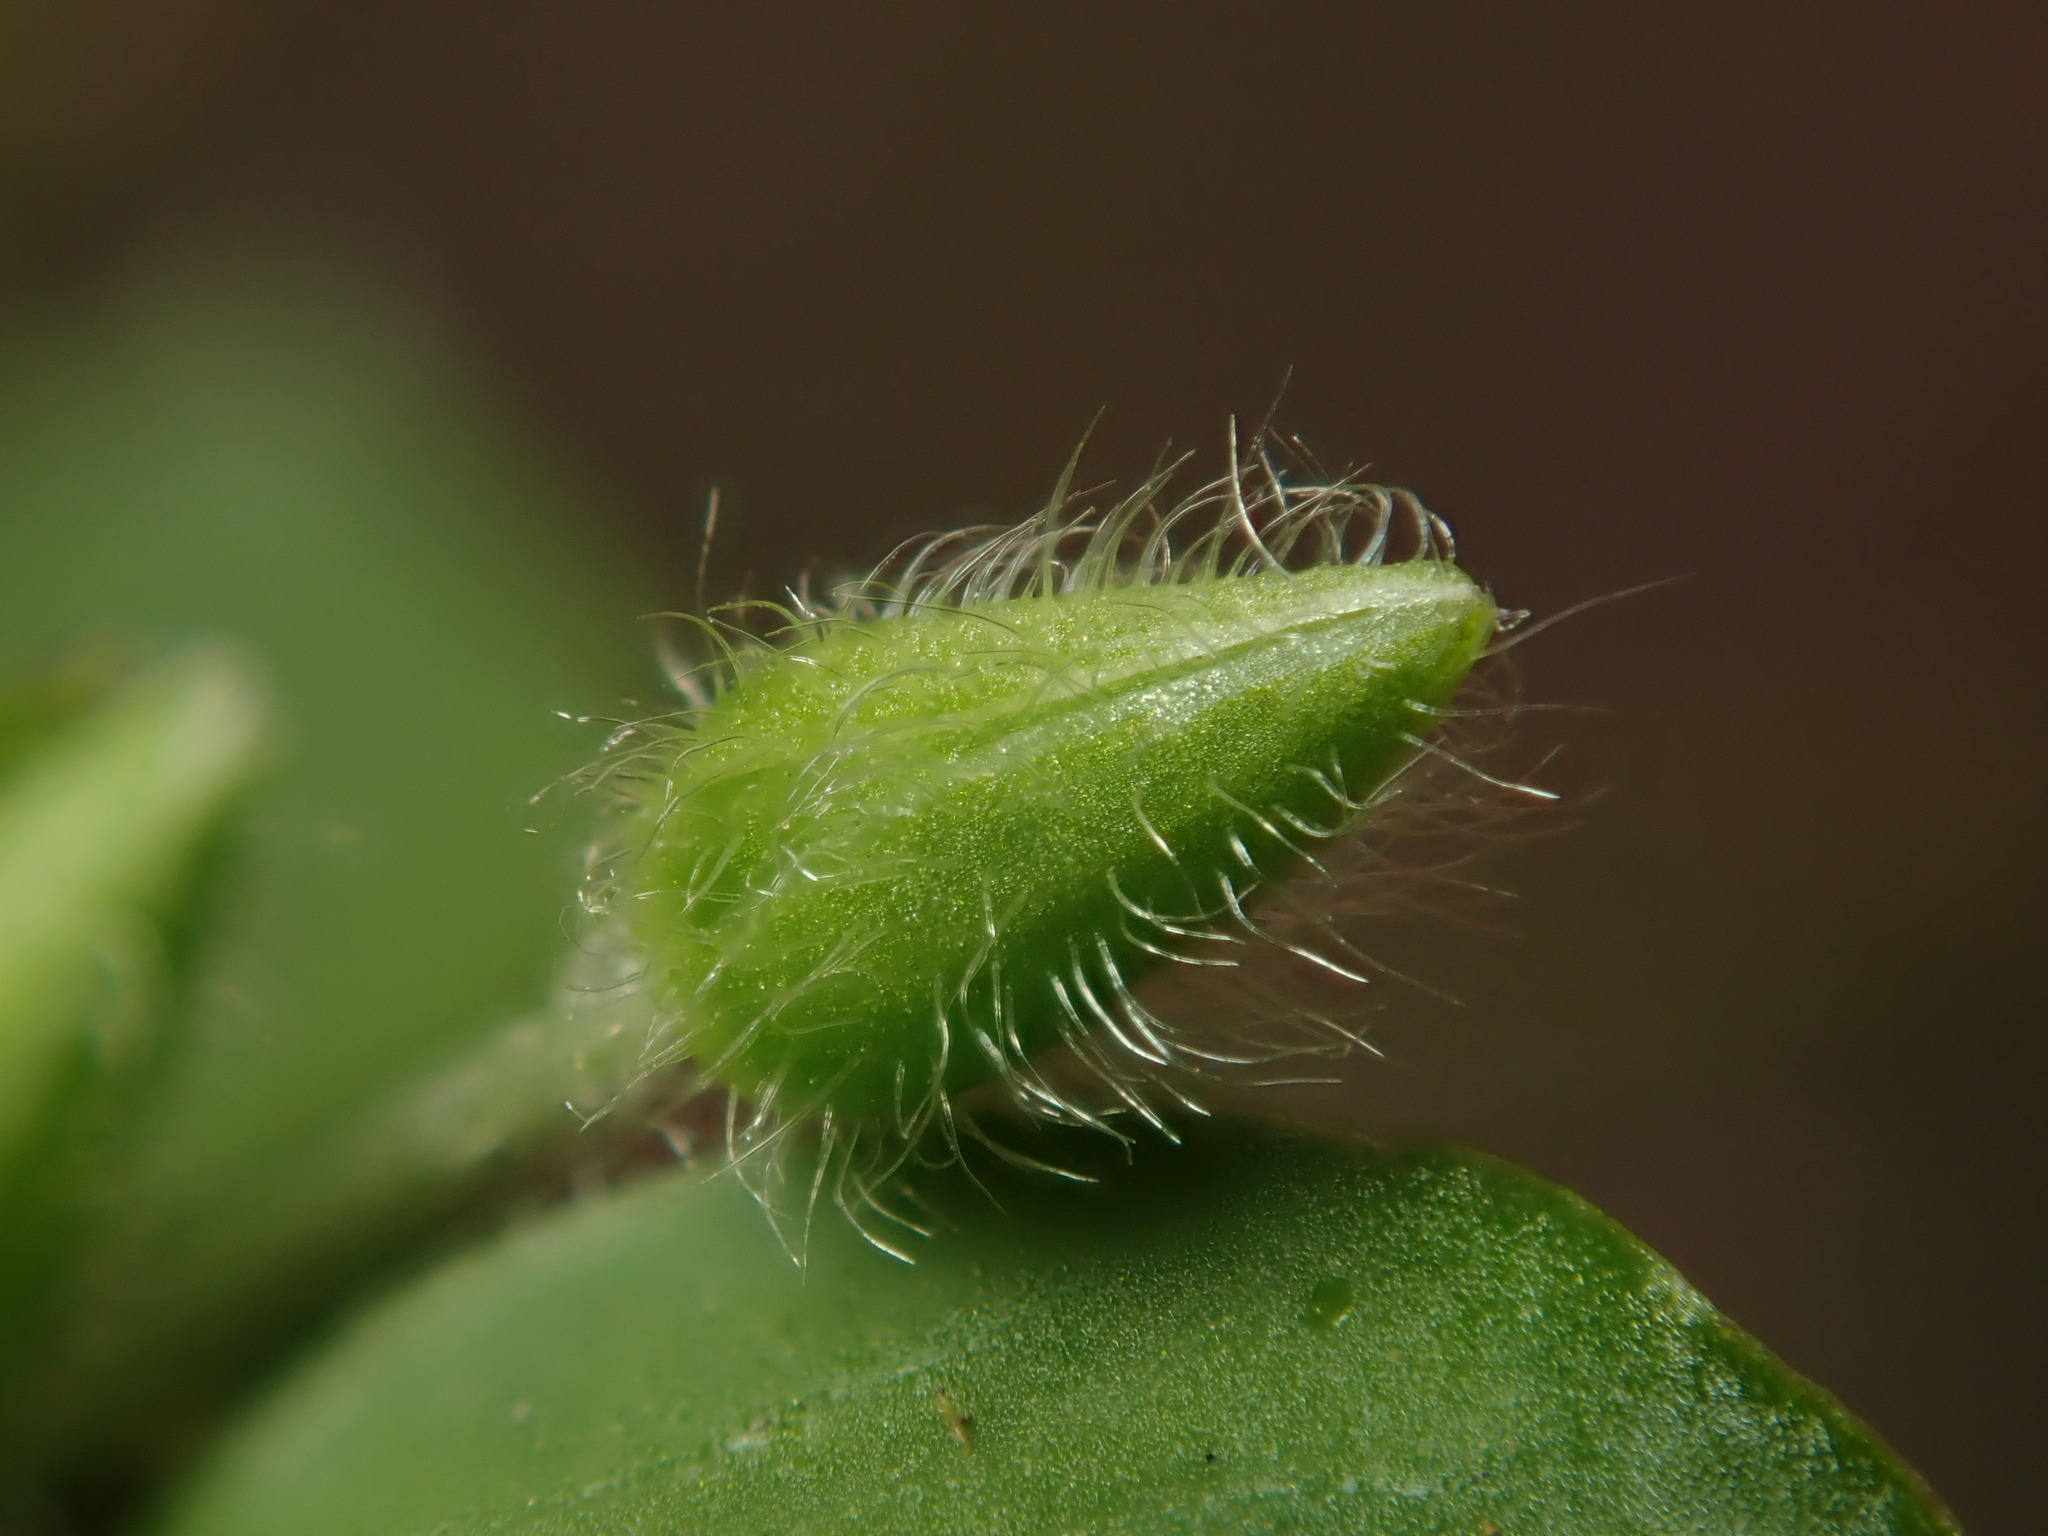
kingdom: Plantae
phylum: Tracheophyta
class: Magnoliopsida
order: Caryophyllales
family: Caryophyllaceae
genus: Stellaria
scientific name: Stellaria media
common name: Common chickweed
